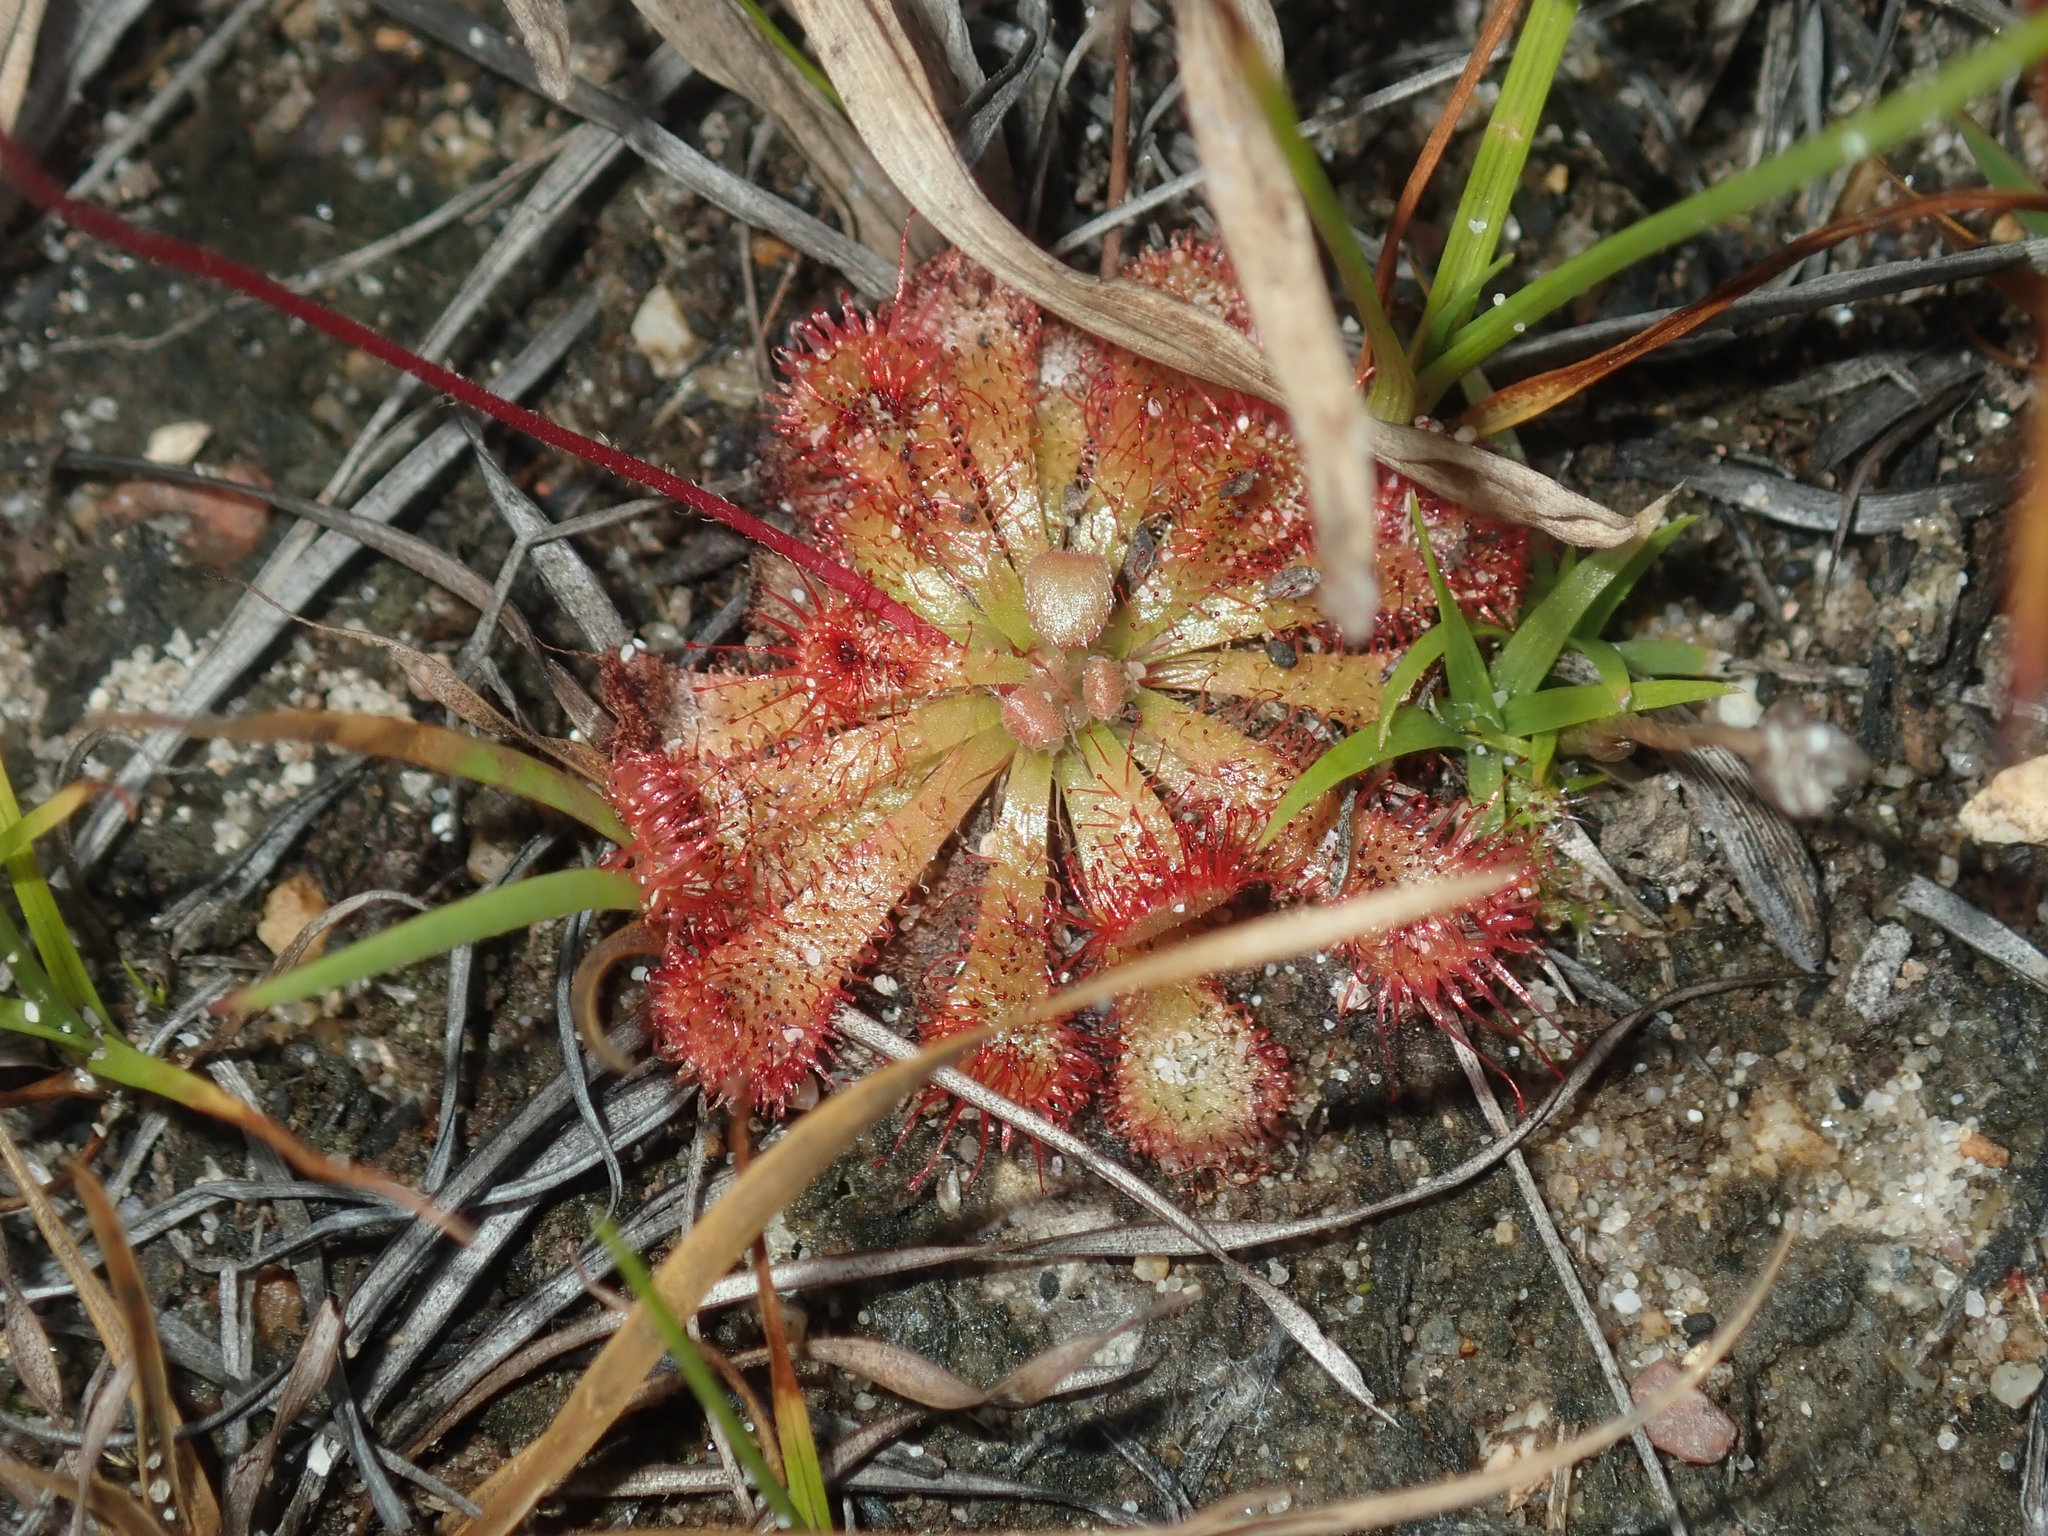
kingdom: Plantae
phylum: Tracheophyta
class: Magnoliopsida
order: Caryophyllales
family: Droseraceae
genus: Drosera
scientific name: Drosera spatulata
